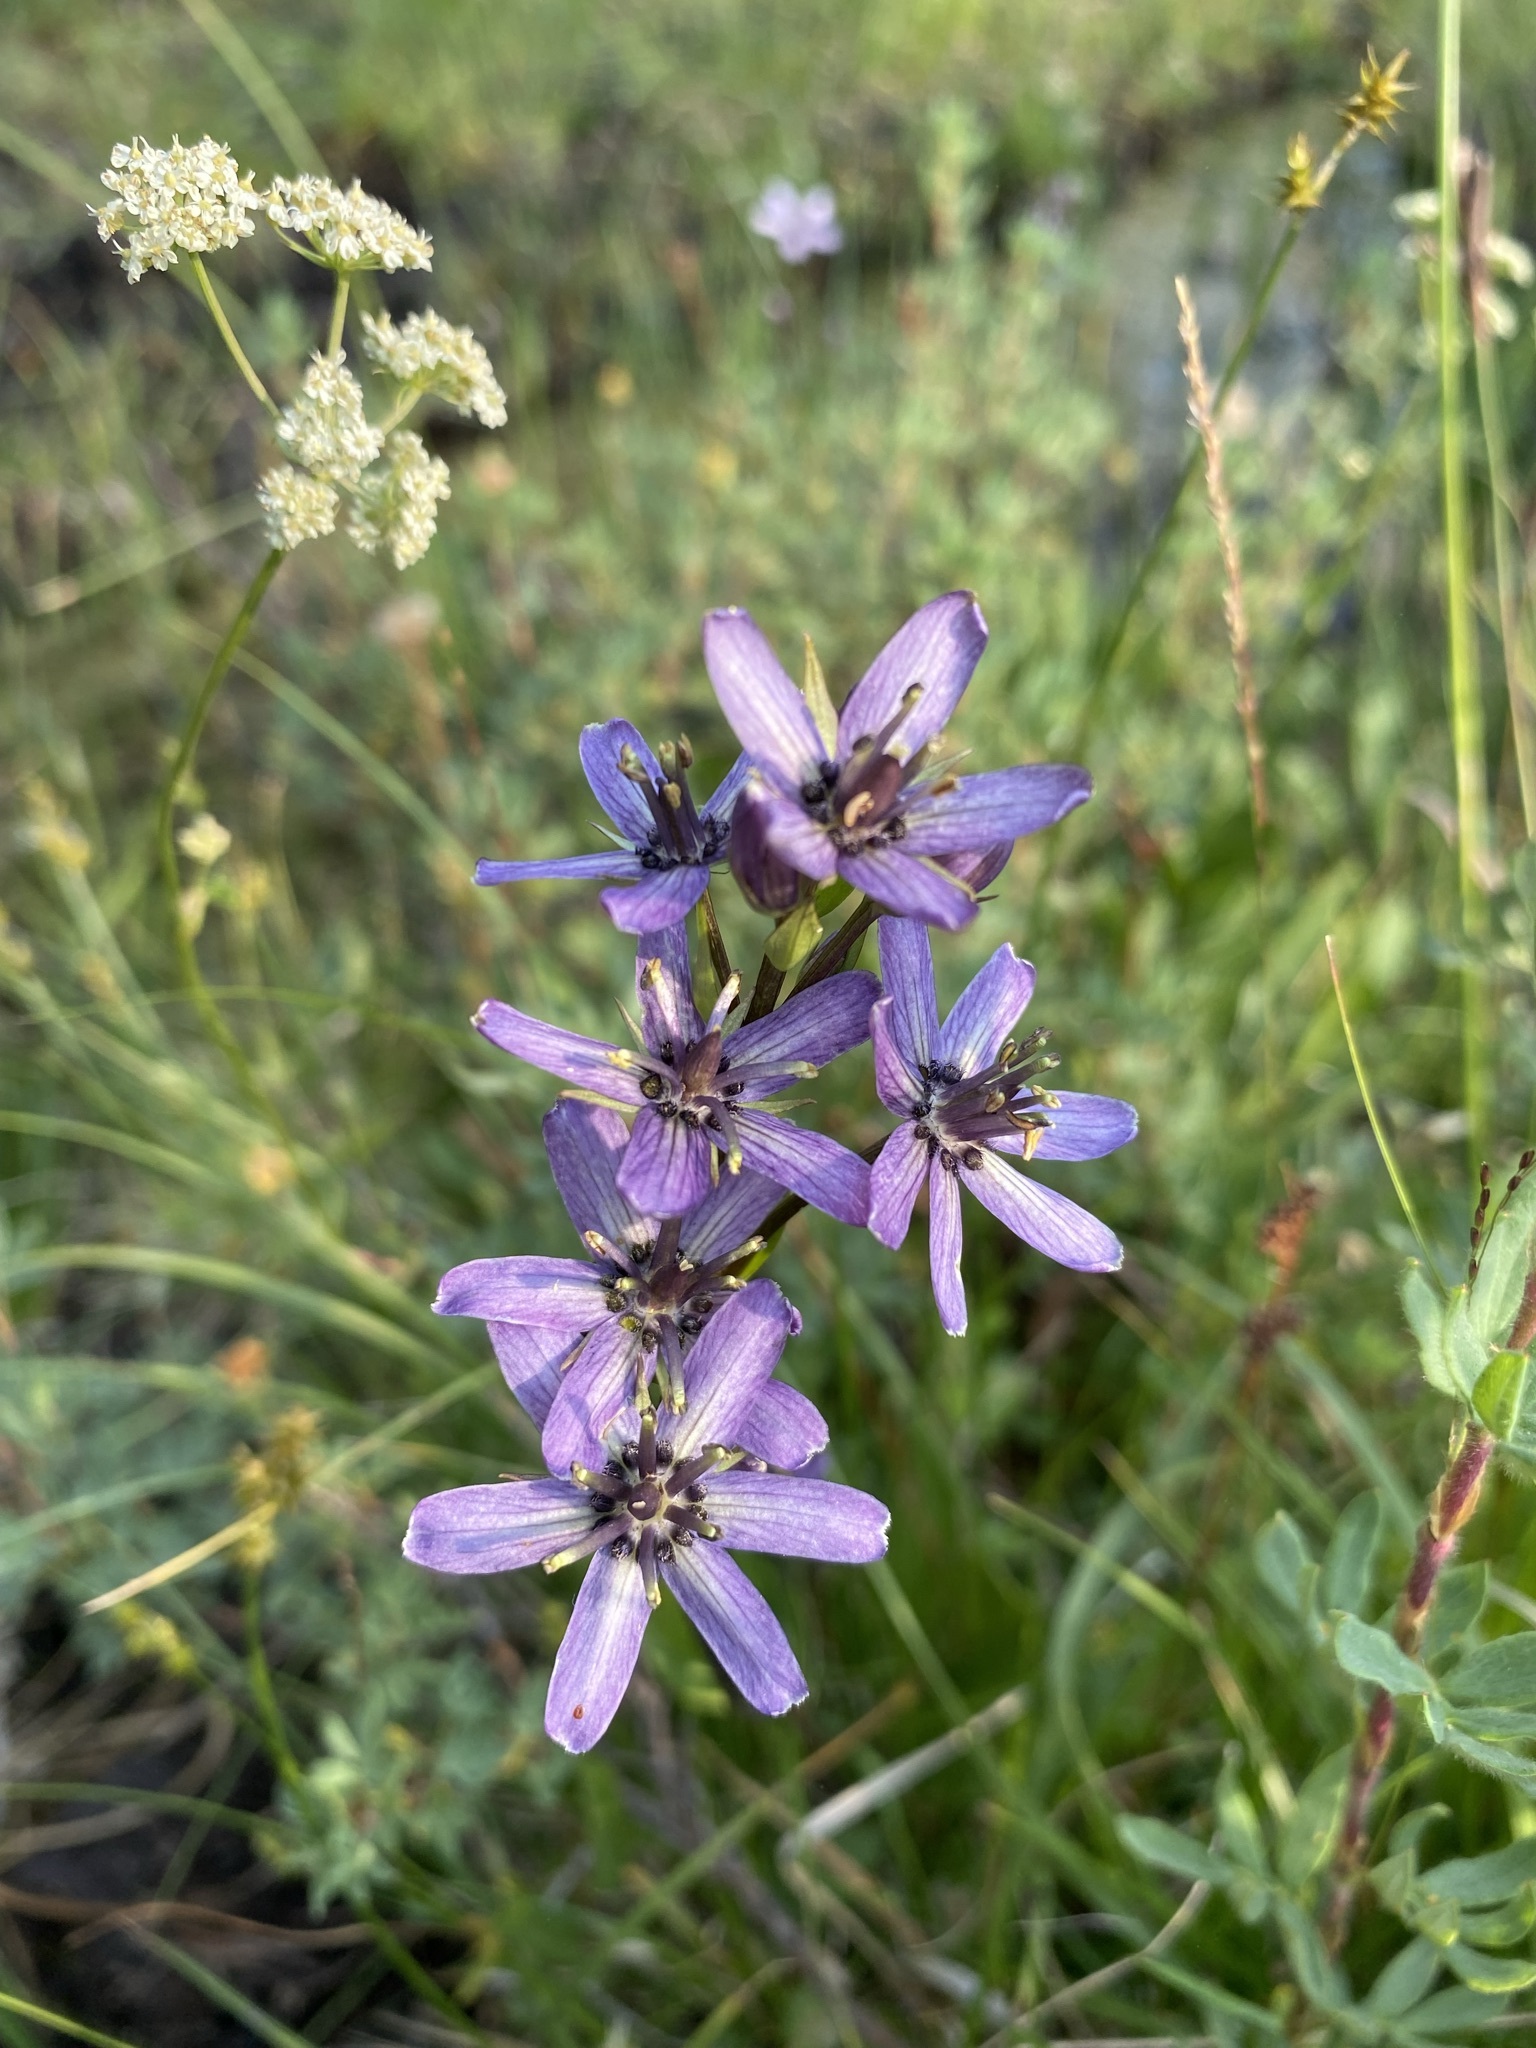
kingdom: Plantae
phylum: Tracheophyta
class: Magnoliopsida
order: Gentianales
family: Gentianaceae
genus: Swertia
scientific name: Swertia perennis
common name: Alpine bog swertia
